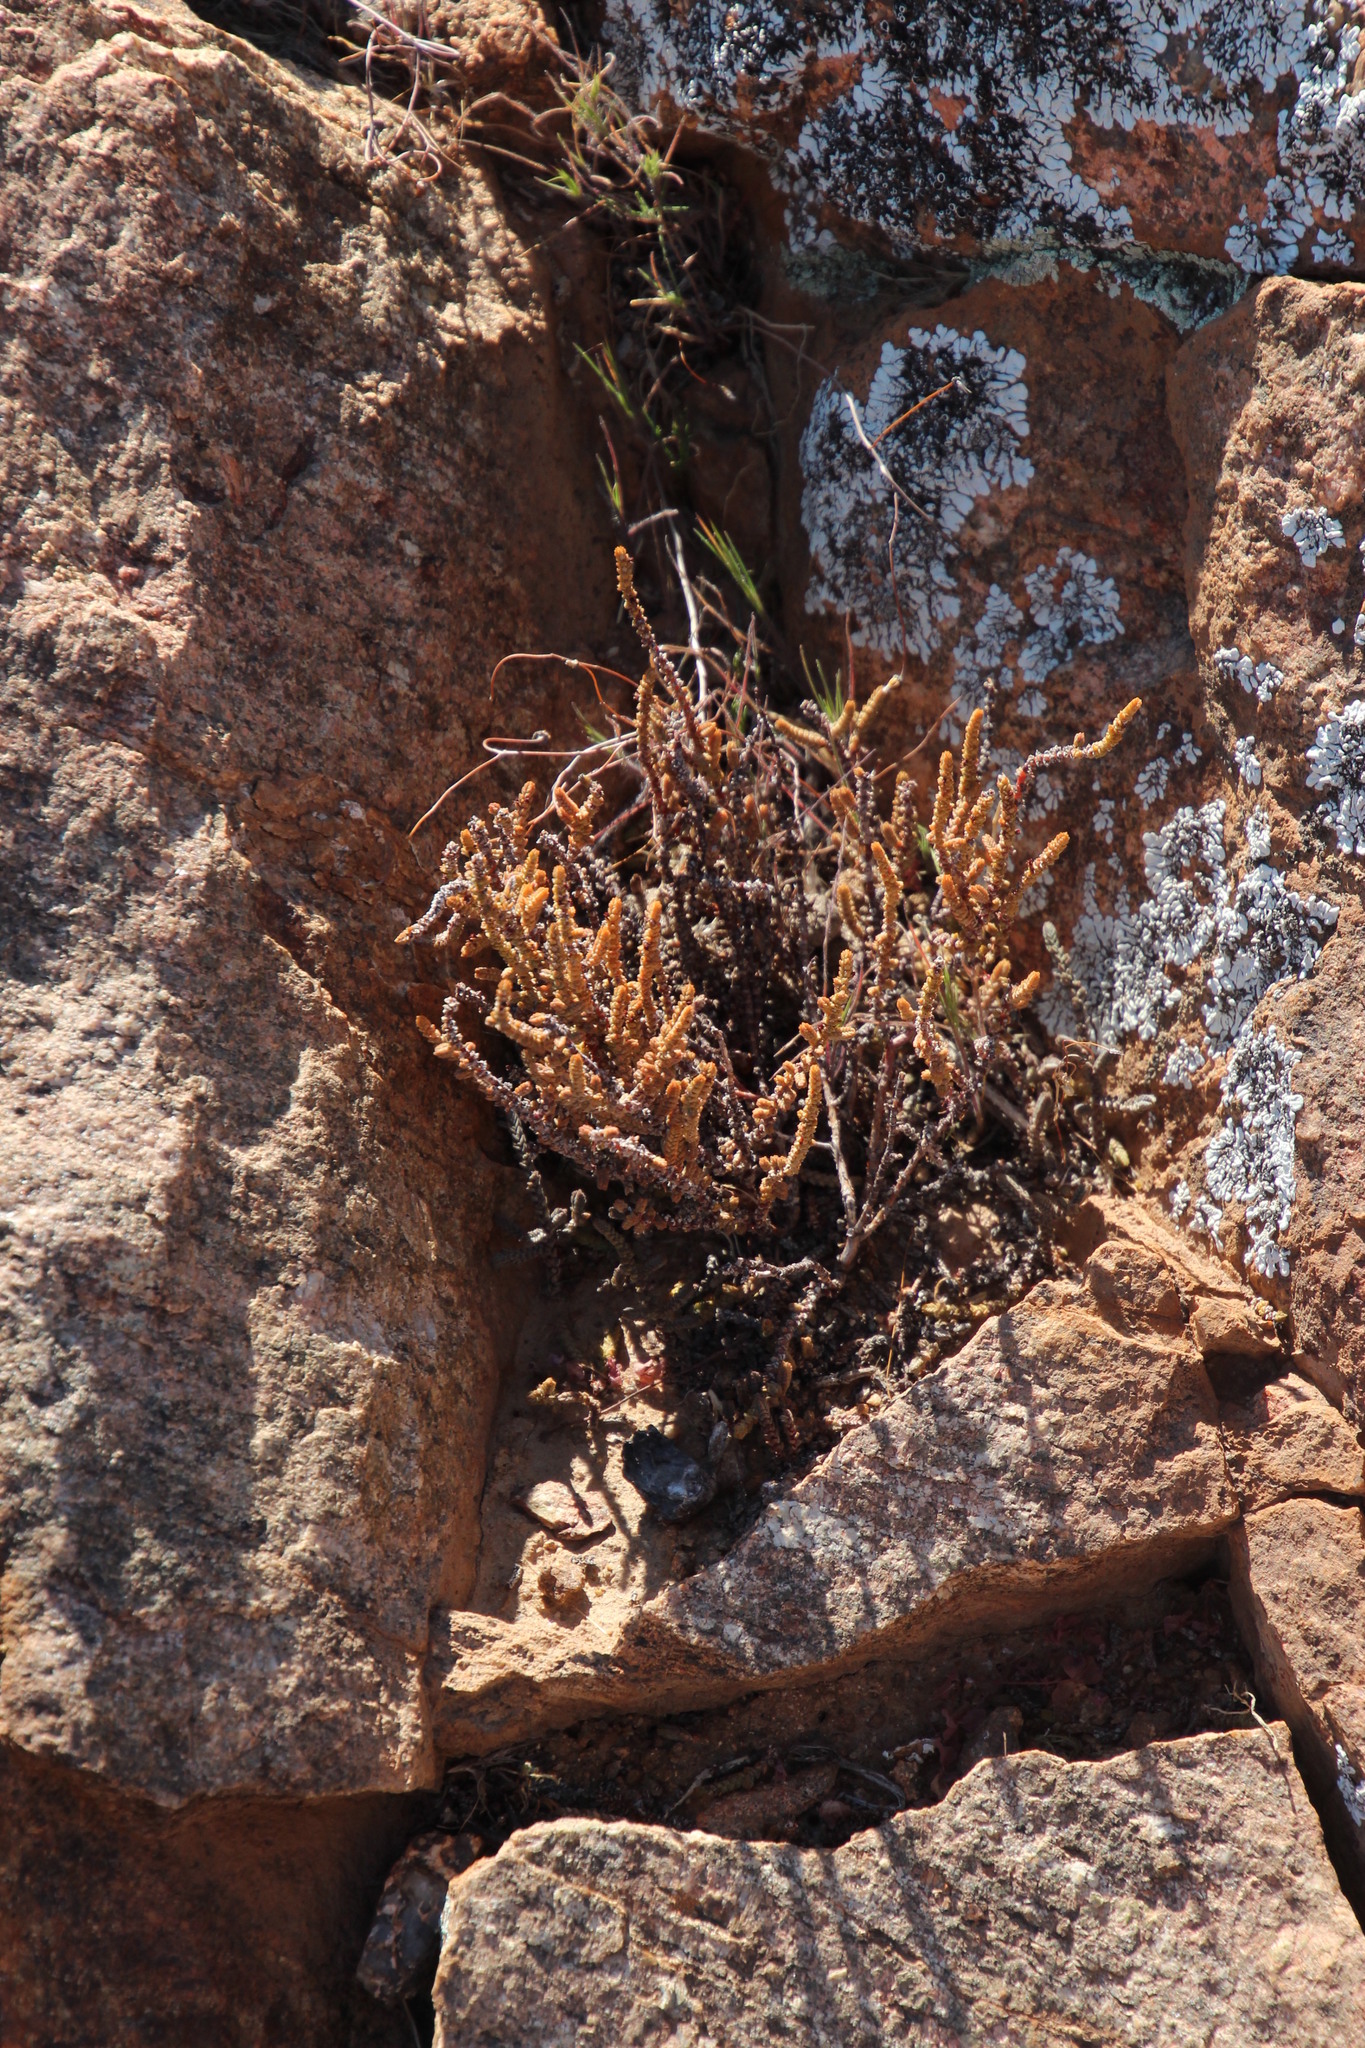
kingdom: Plantae
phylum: Tracheophyta
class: Magnoliopsida
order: Saxifragales
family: Crassulaceae
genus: Crassula
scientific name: Crassula muscosa
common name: Toy-cypress
